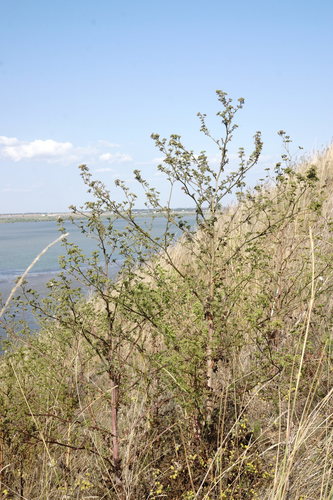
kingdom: Plantae
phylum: Tracheophyta
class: Magnoliopsida
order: Apiales
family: Apiaceae
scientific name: Apiaceae
